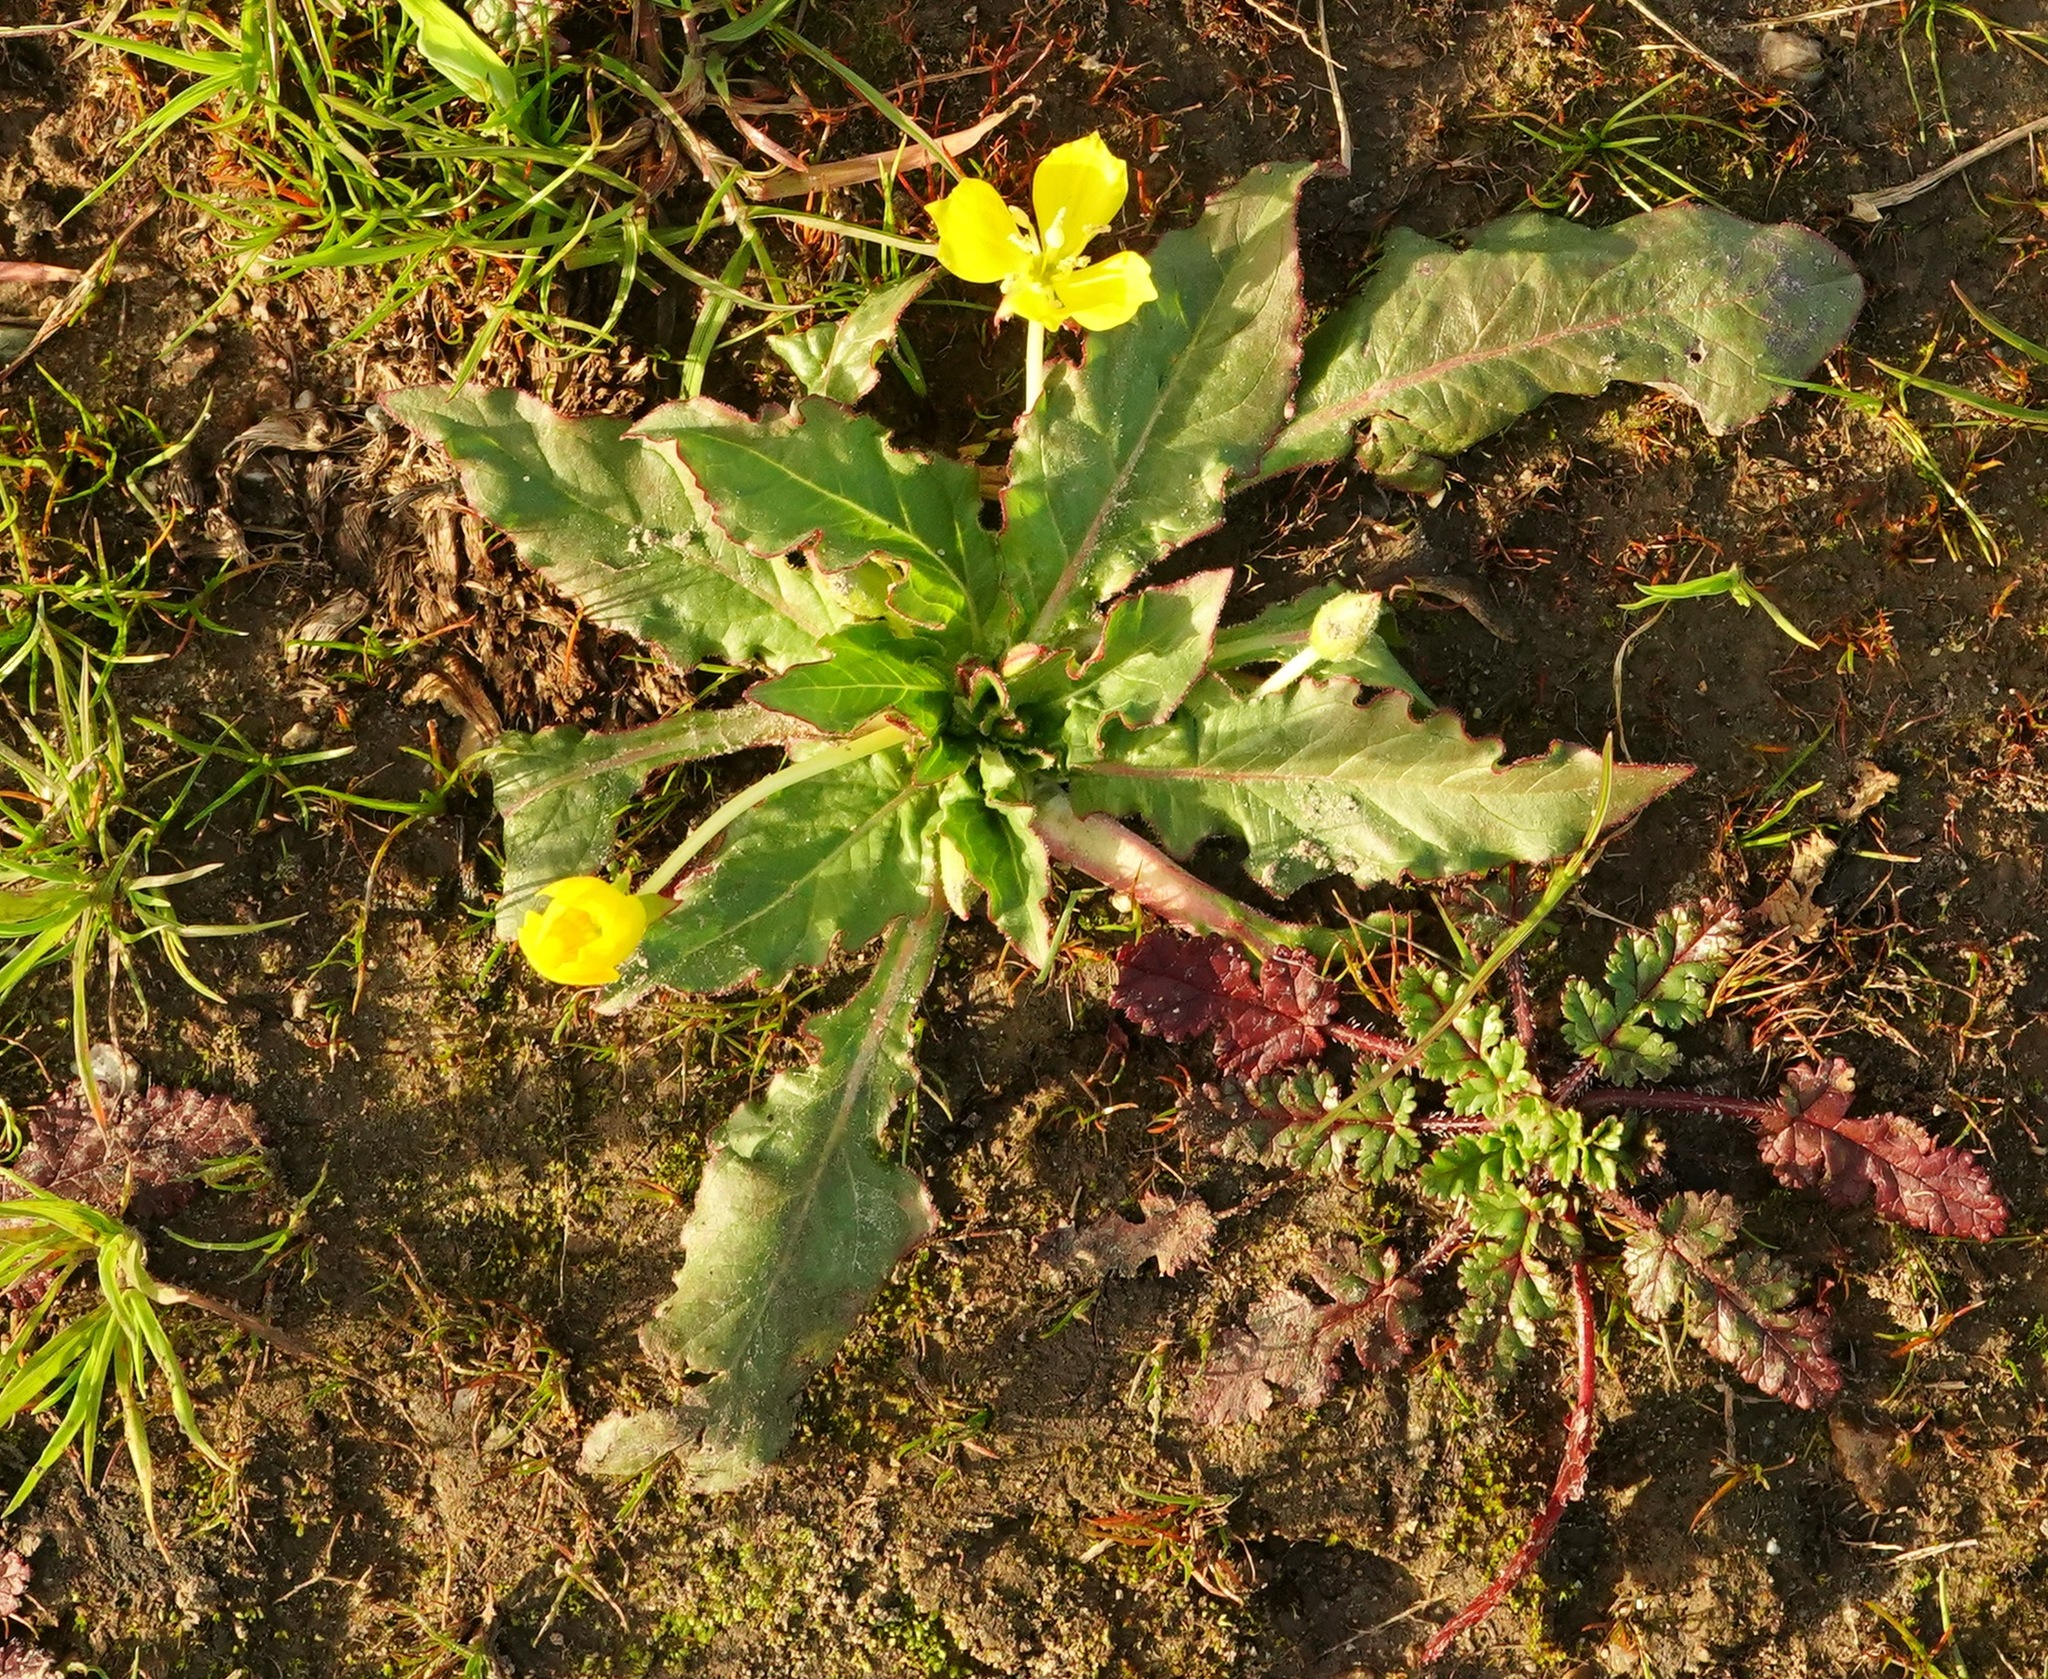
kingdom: Plantae
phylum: Tracheophyta
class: Magnoliopsida
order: Myrtales
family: Onagraceae
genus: Taraxia
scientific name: Taraxia ovata
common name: Goldeneggs
